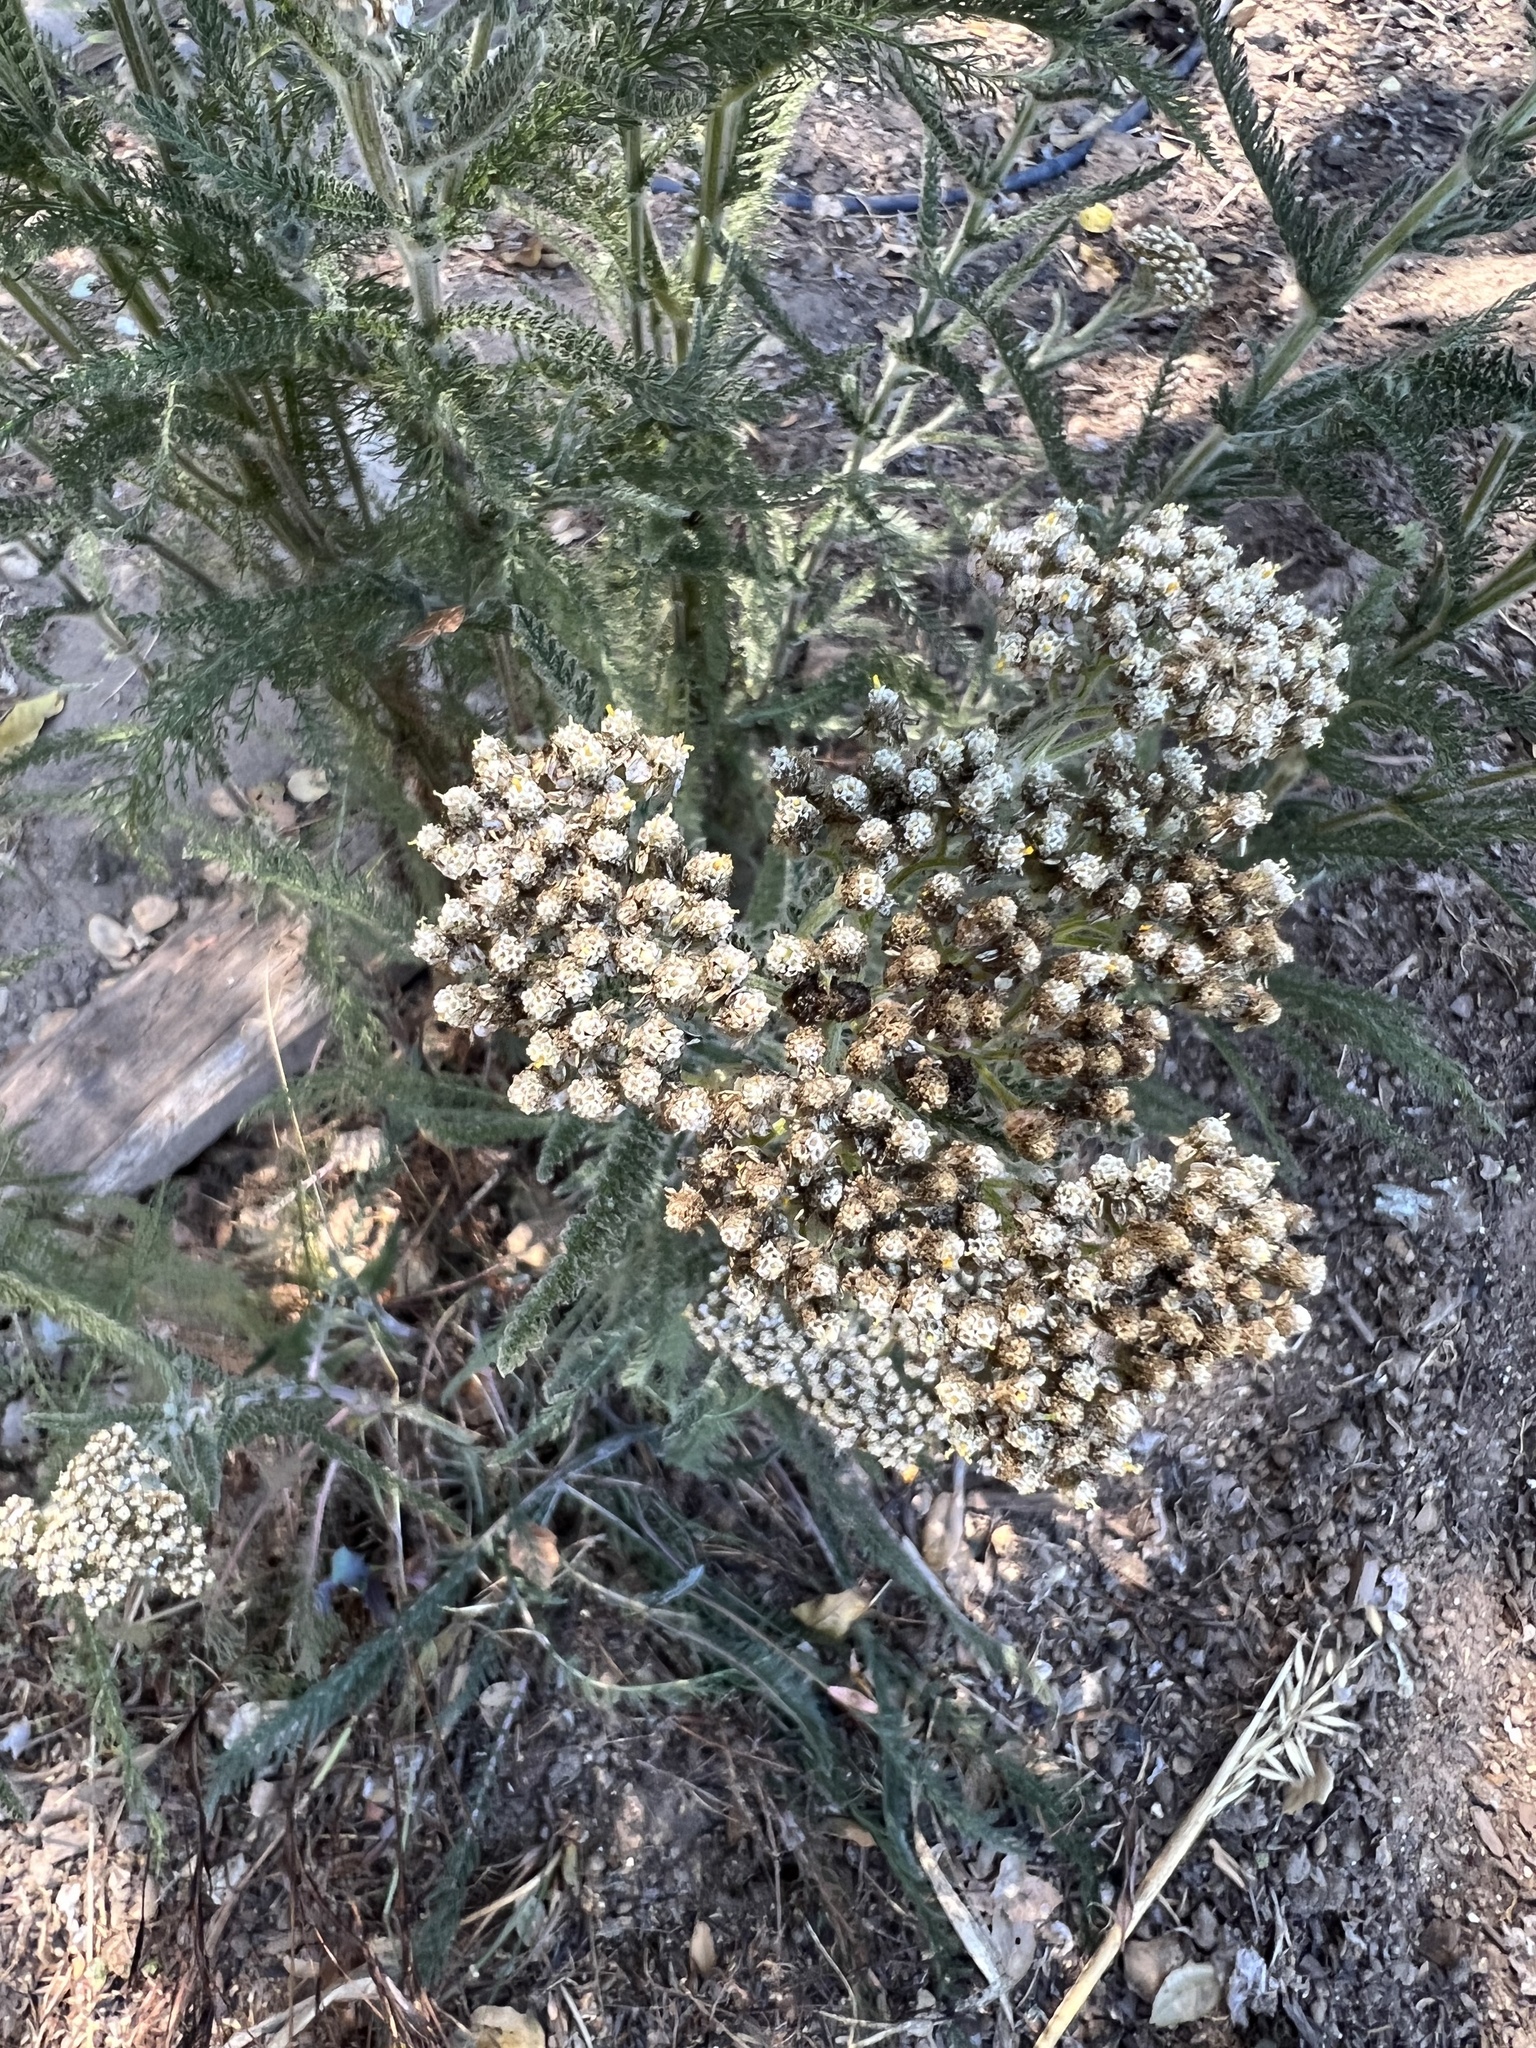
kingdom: Plantae
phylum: Tracheophyta
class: Magnoliopsida
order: Asterales
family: Asteraceae
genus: Achillea
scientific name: Achillea millefolium
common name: Yarrow
